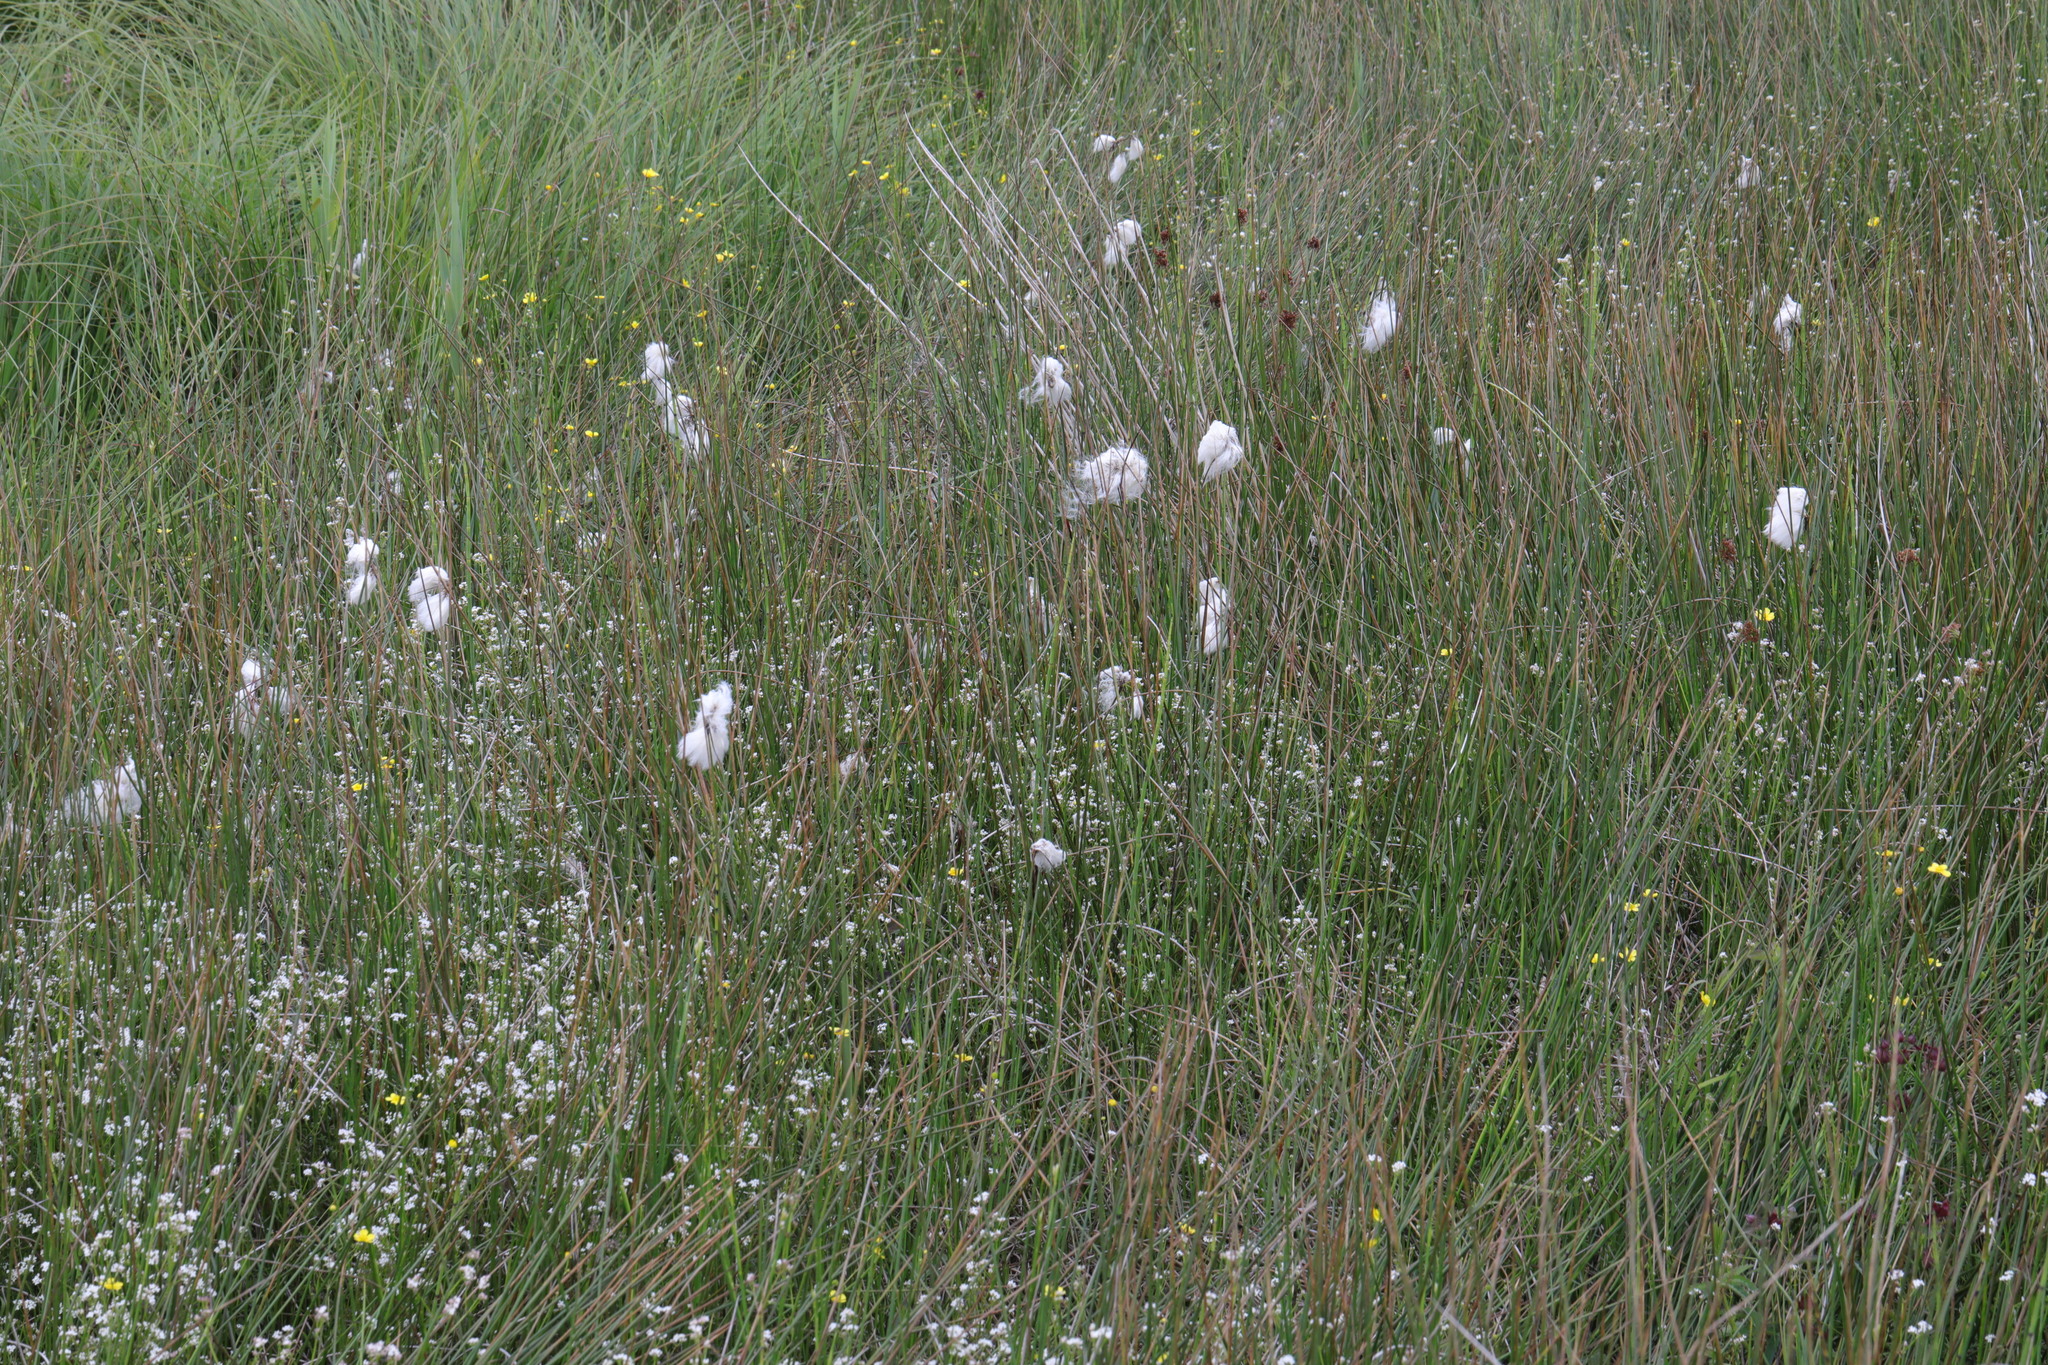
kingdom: Plantae
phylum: Tracheophyta
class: Liliopsida
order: Poales
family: Cyperaceae
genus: Eriophorum
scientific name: Eriophorum angustifolium
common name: Common cottongrass
